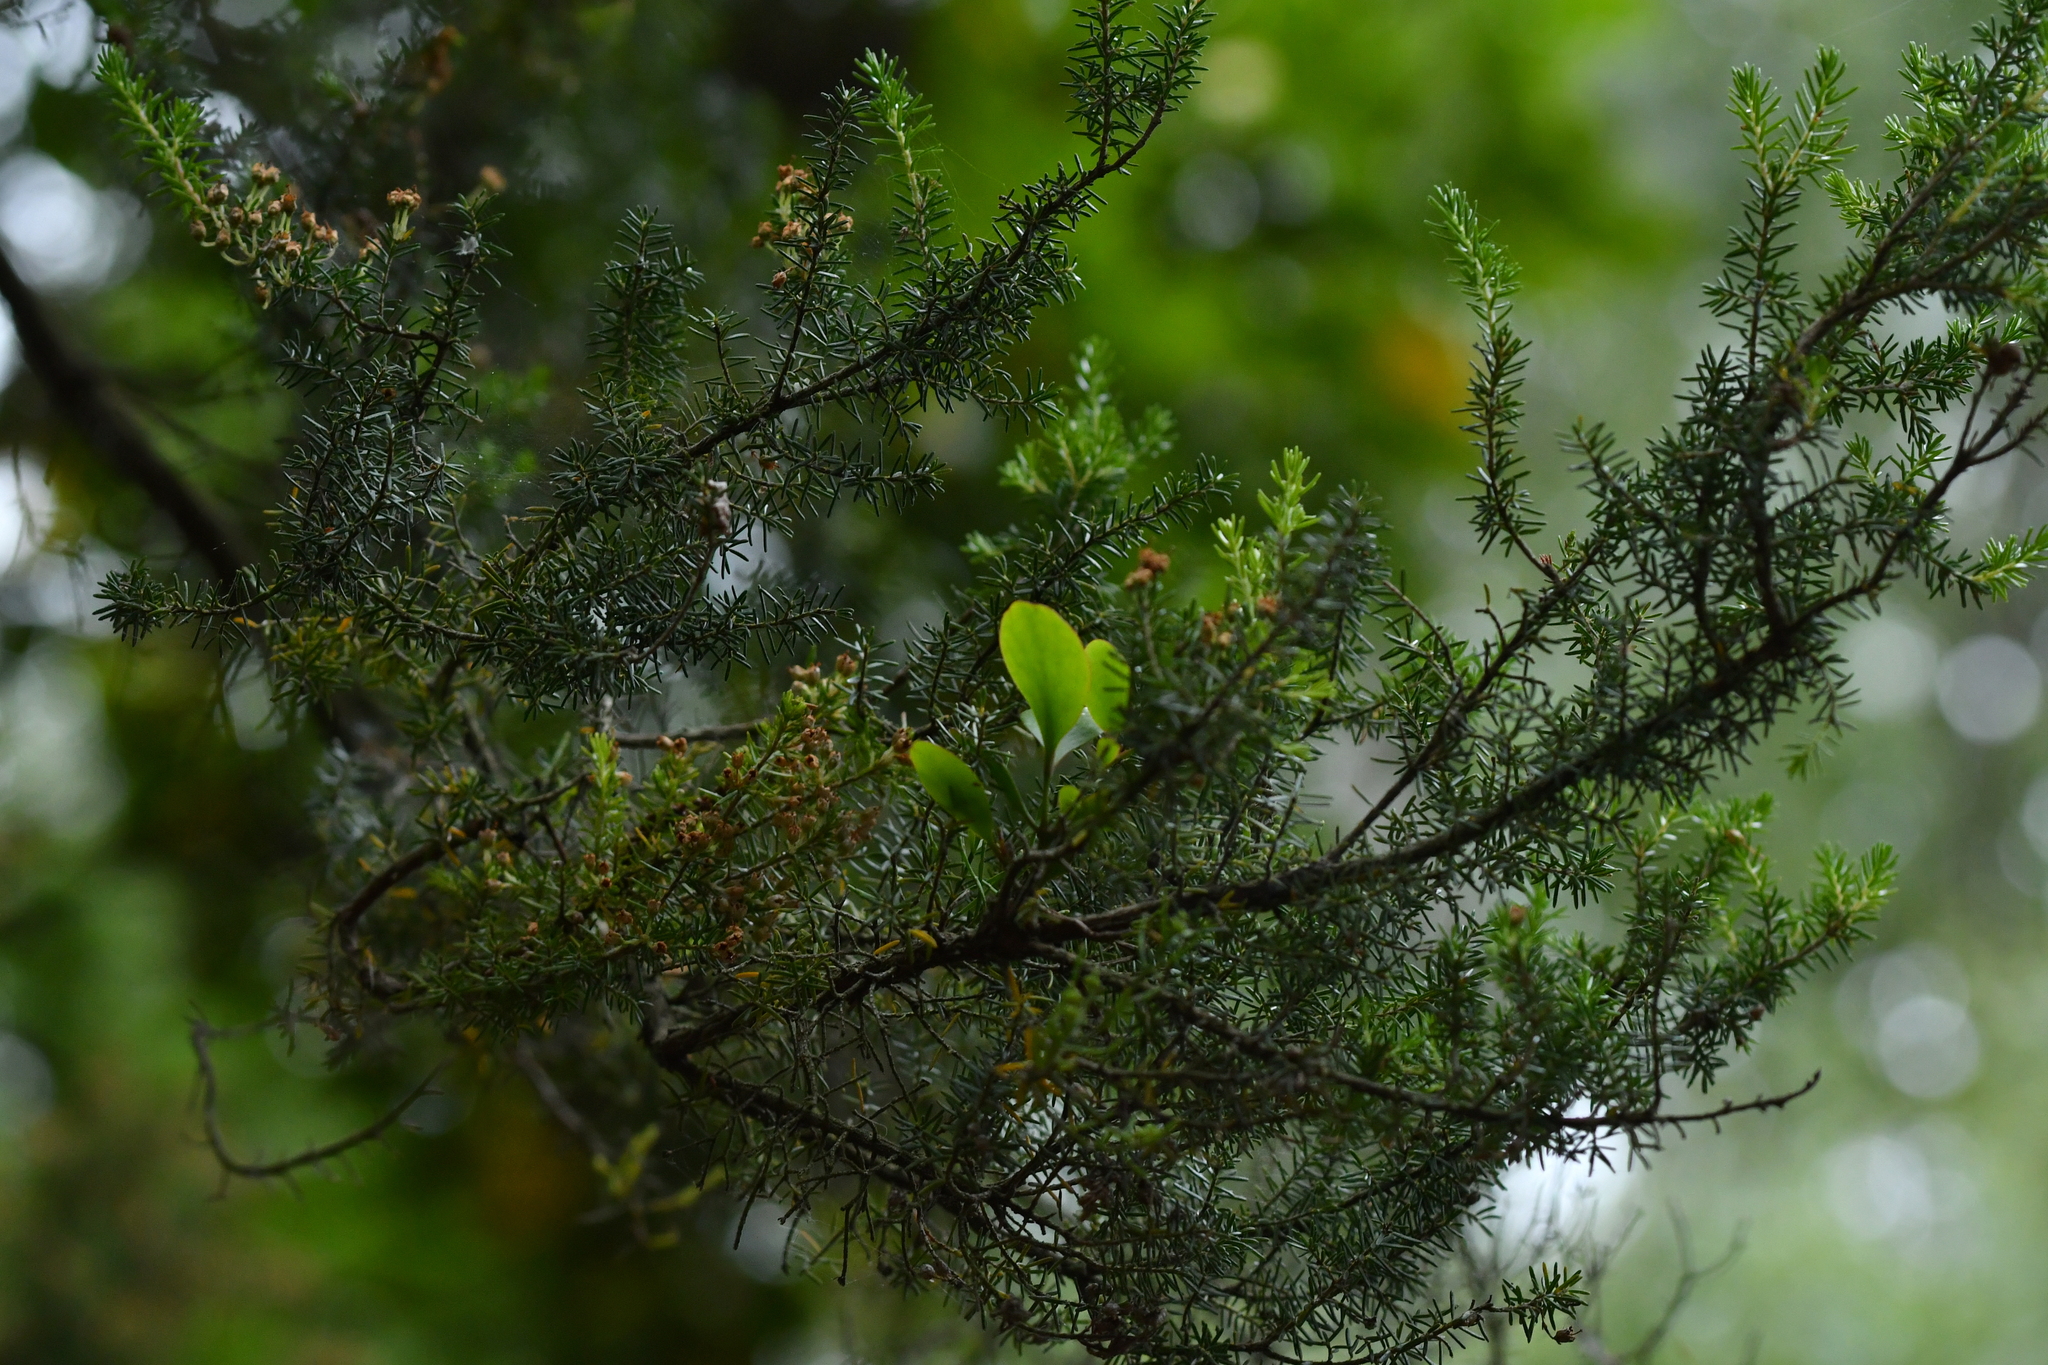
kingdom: Plantae
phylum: Tracheophyta
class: Magnoliopsida
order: Santalales
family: Loranthaceae
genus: Ileostylus
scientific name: Ileostylus micranthus
